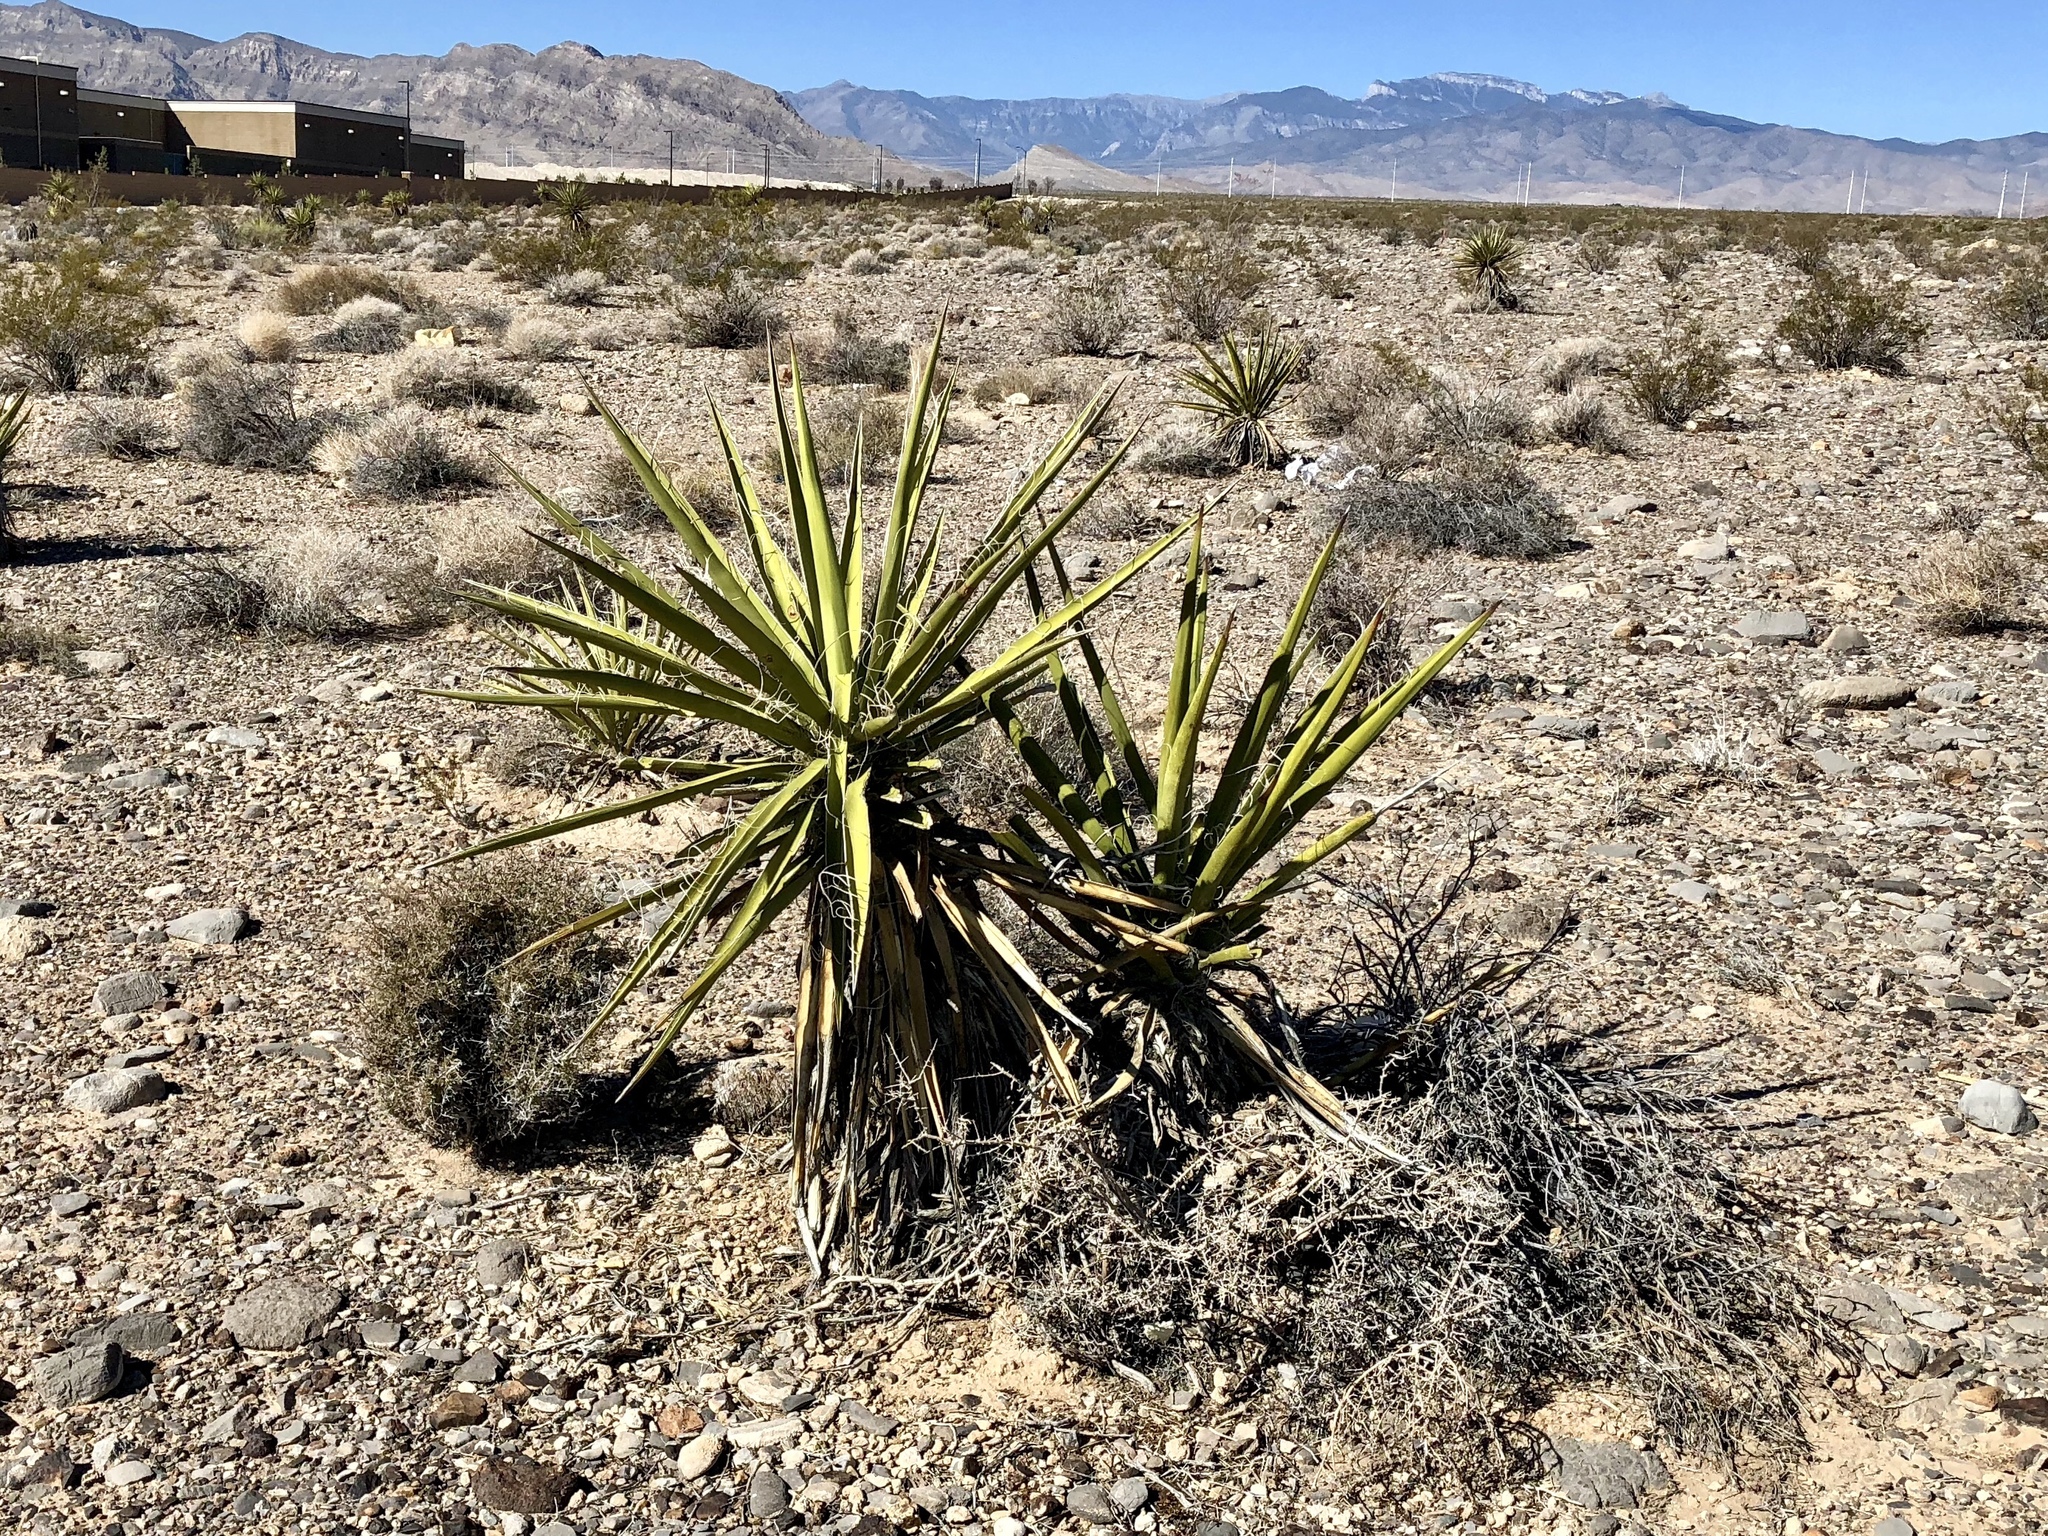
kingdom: Plantae
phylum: Tracheophyta
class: Liliopsida
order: Asparagales
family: Asparagaceae
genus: Yucca
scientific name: Yucca schidigera
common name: Mojave yucca
